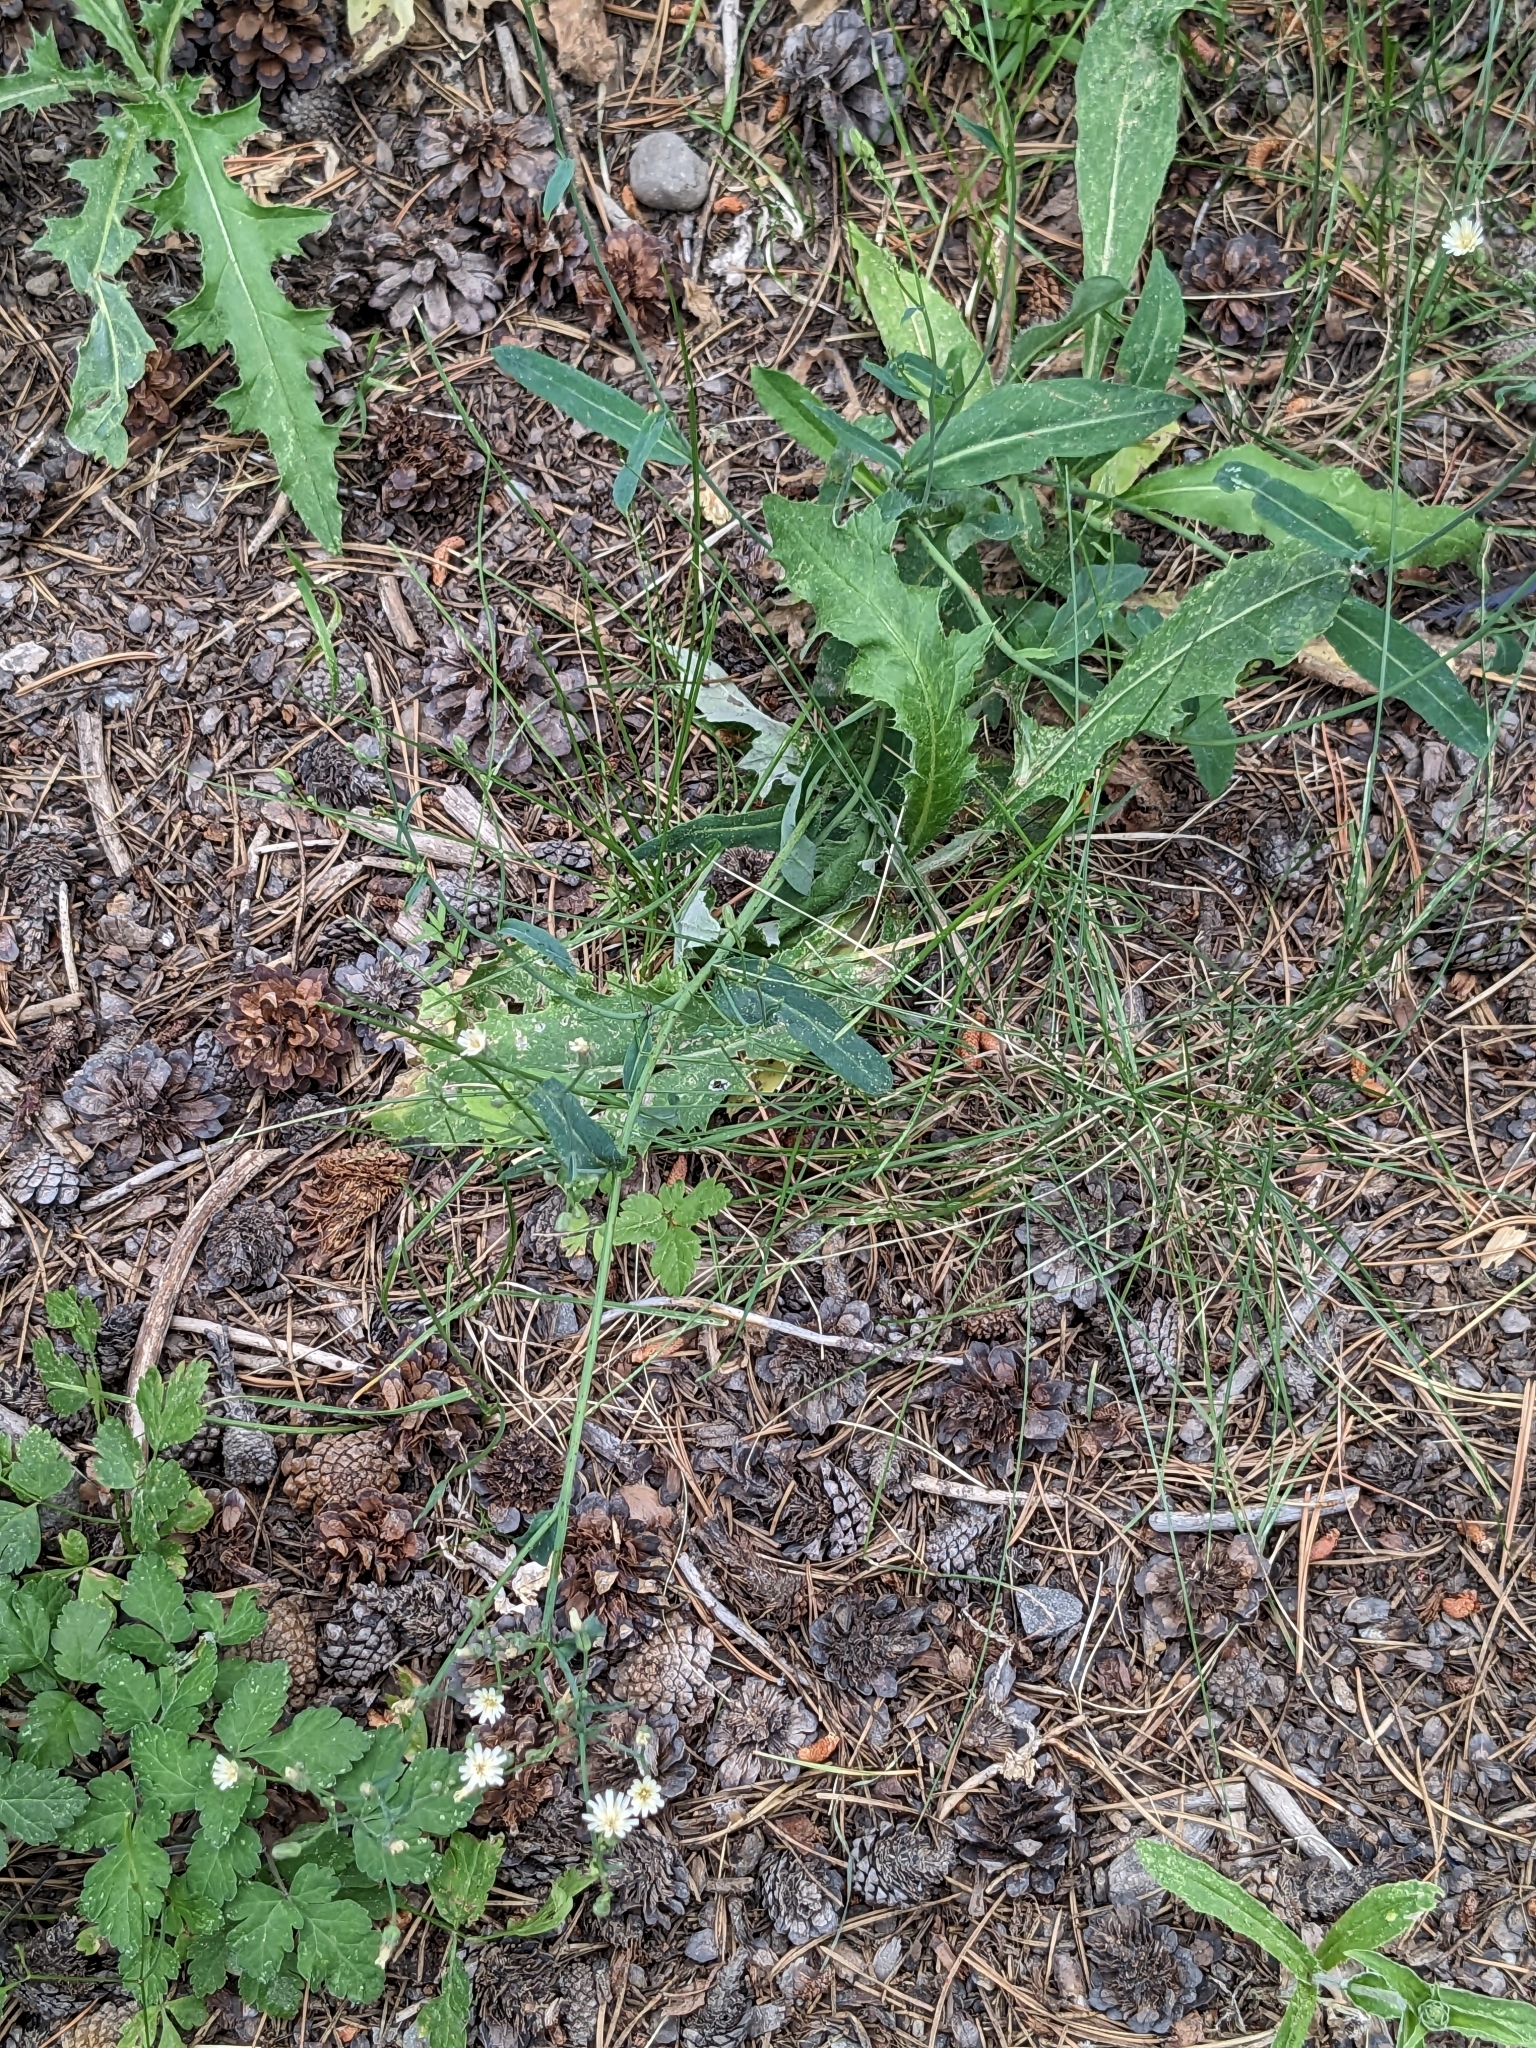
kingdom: Plantae
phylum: Tracheophyta
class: Magnoliopsida
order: Asterales
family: Asteraceae
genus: Hieracium
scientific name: Hieracium albiflorum
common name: White hawkweed
